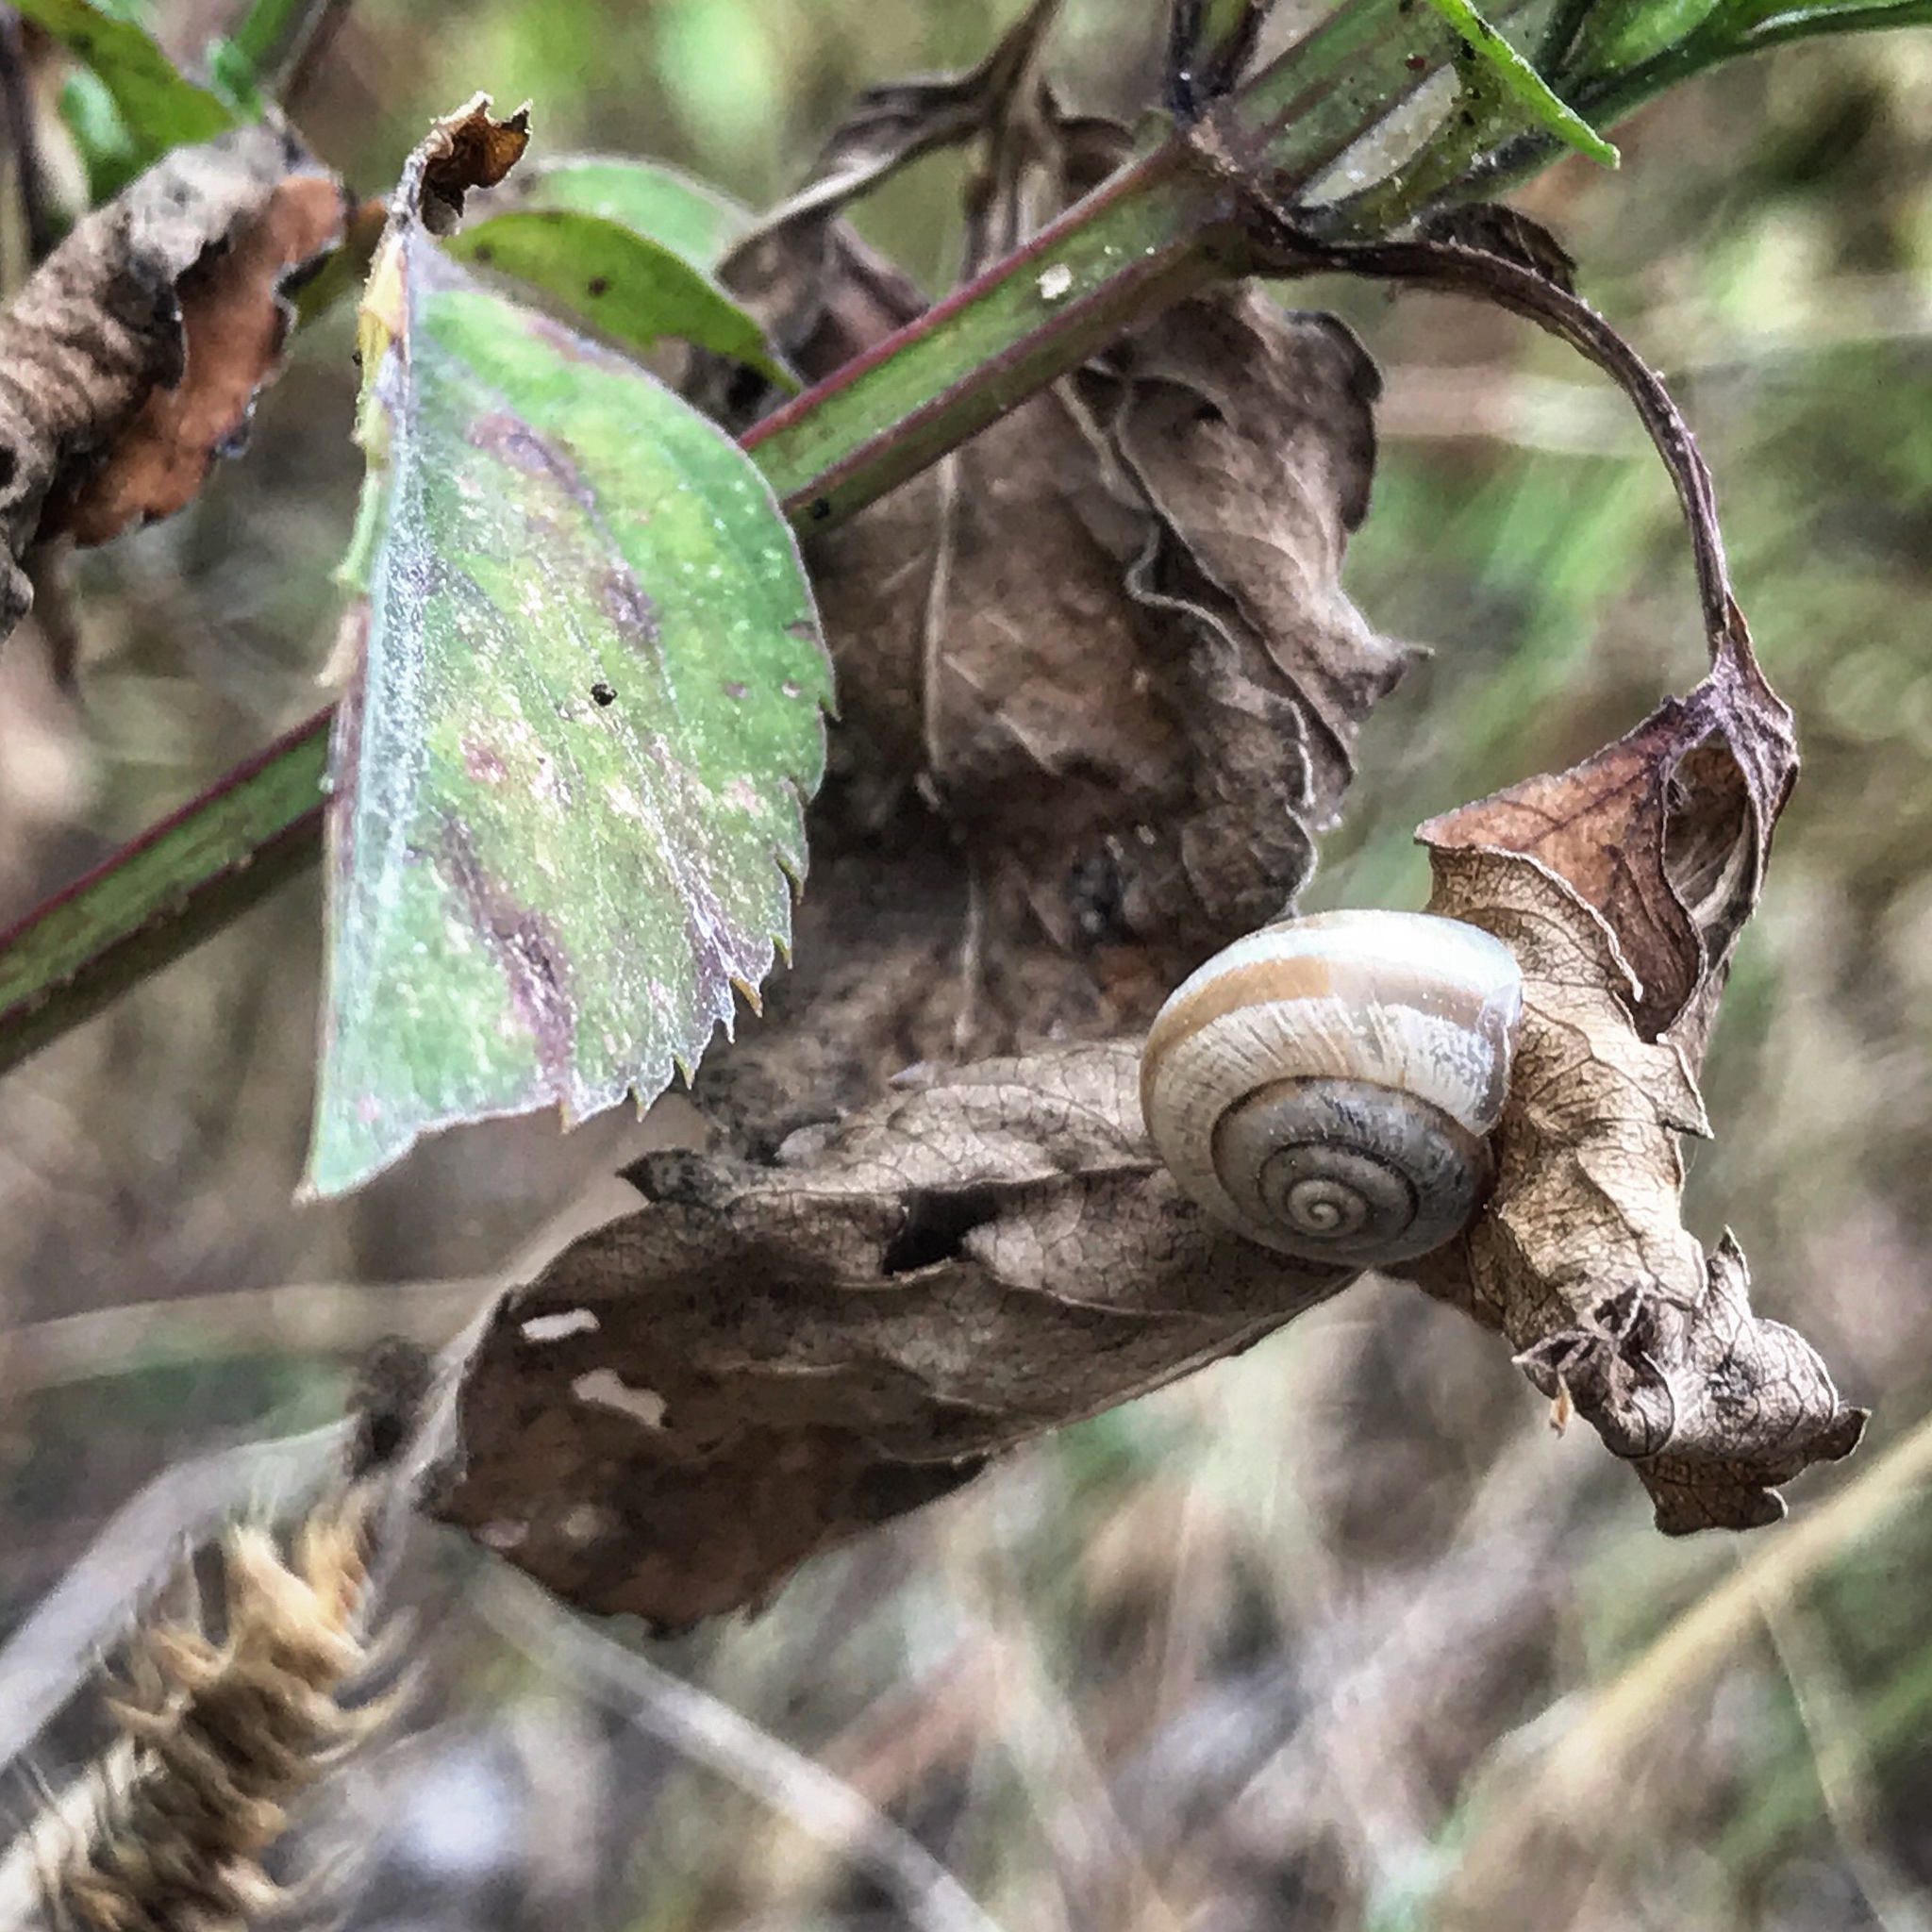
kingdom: Animalia
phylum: Mollusca
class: Gastropoda
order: Stylommatophora
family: Polygyridae
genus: Praticolella
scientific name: Praticolella griseola
